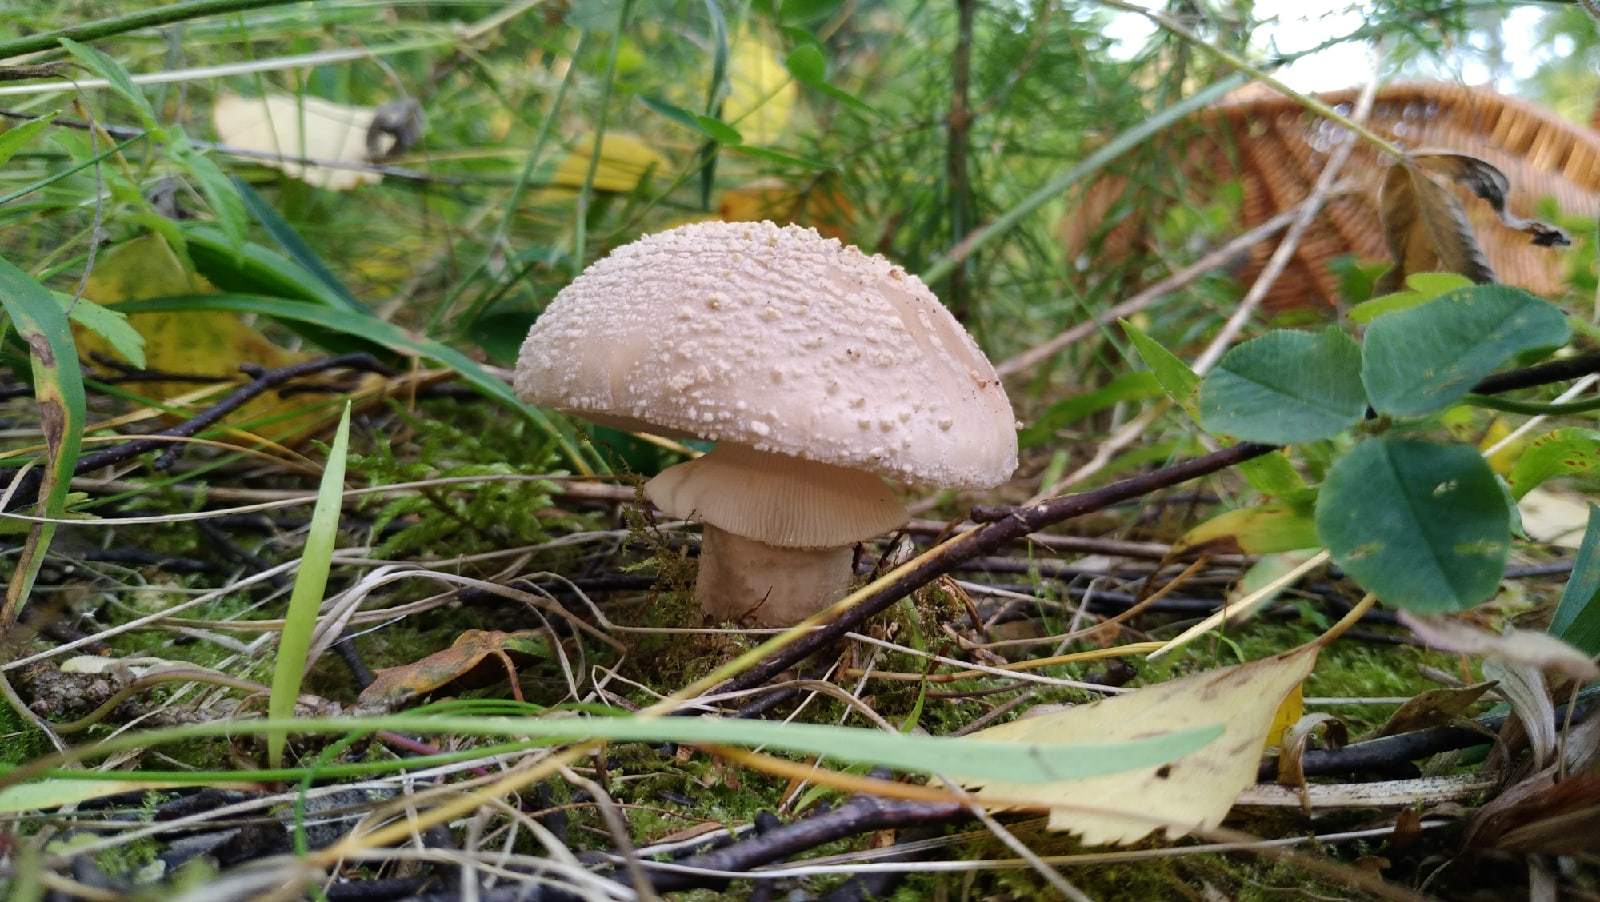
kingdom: Fungi
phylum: Basidiomycota
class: Agaricomycetes
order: Agaricales
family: Amanitaceae
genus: Amanita
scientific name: Amanita rubescens
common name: Blusher
